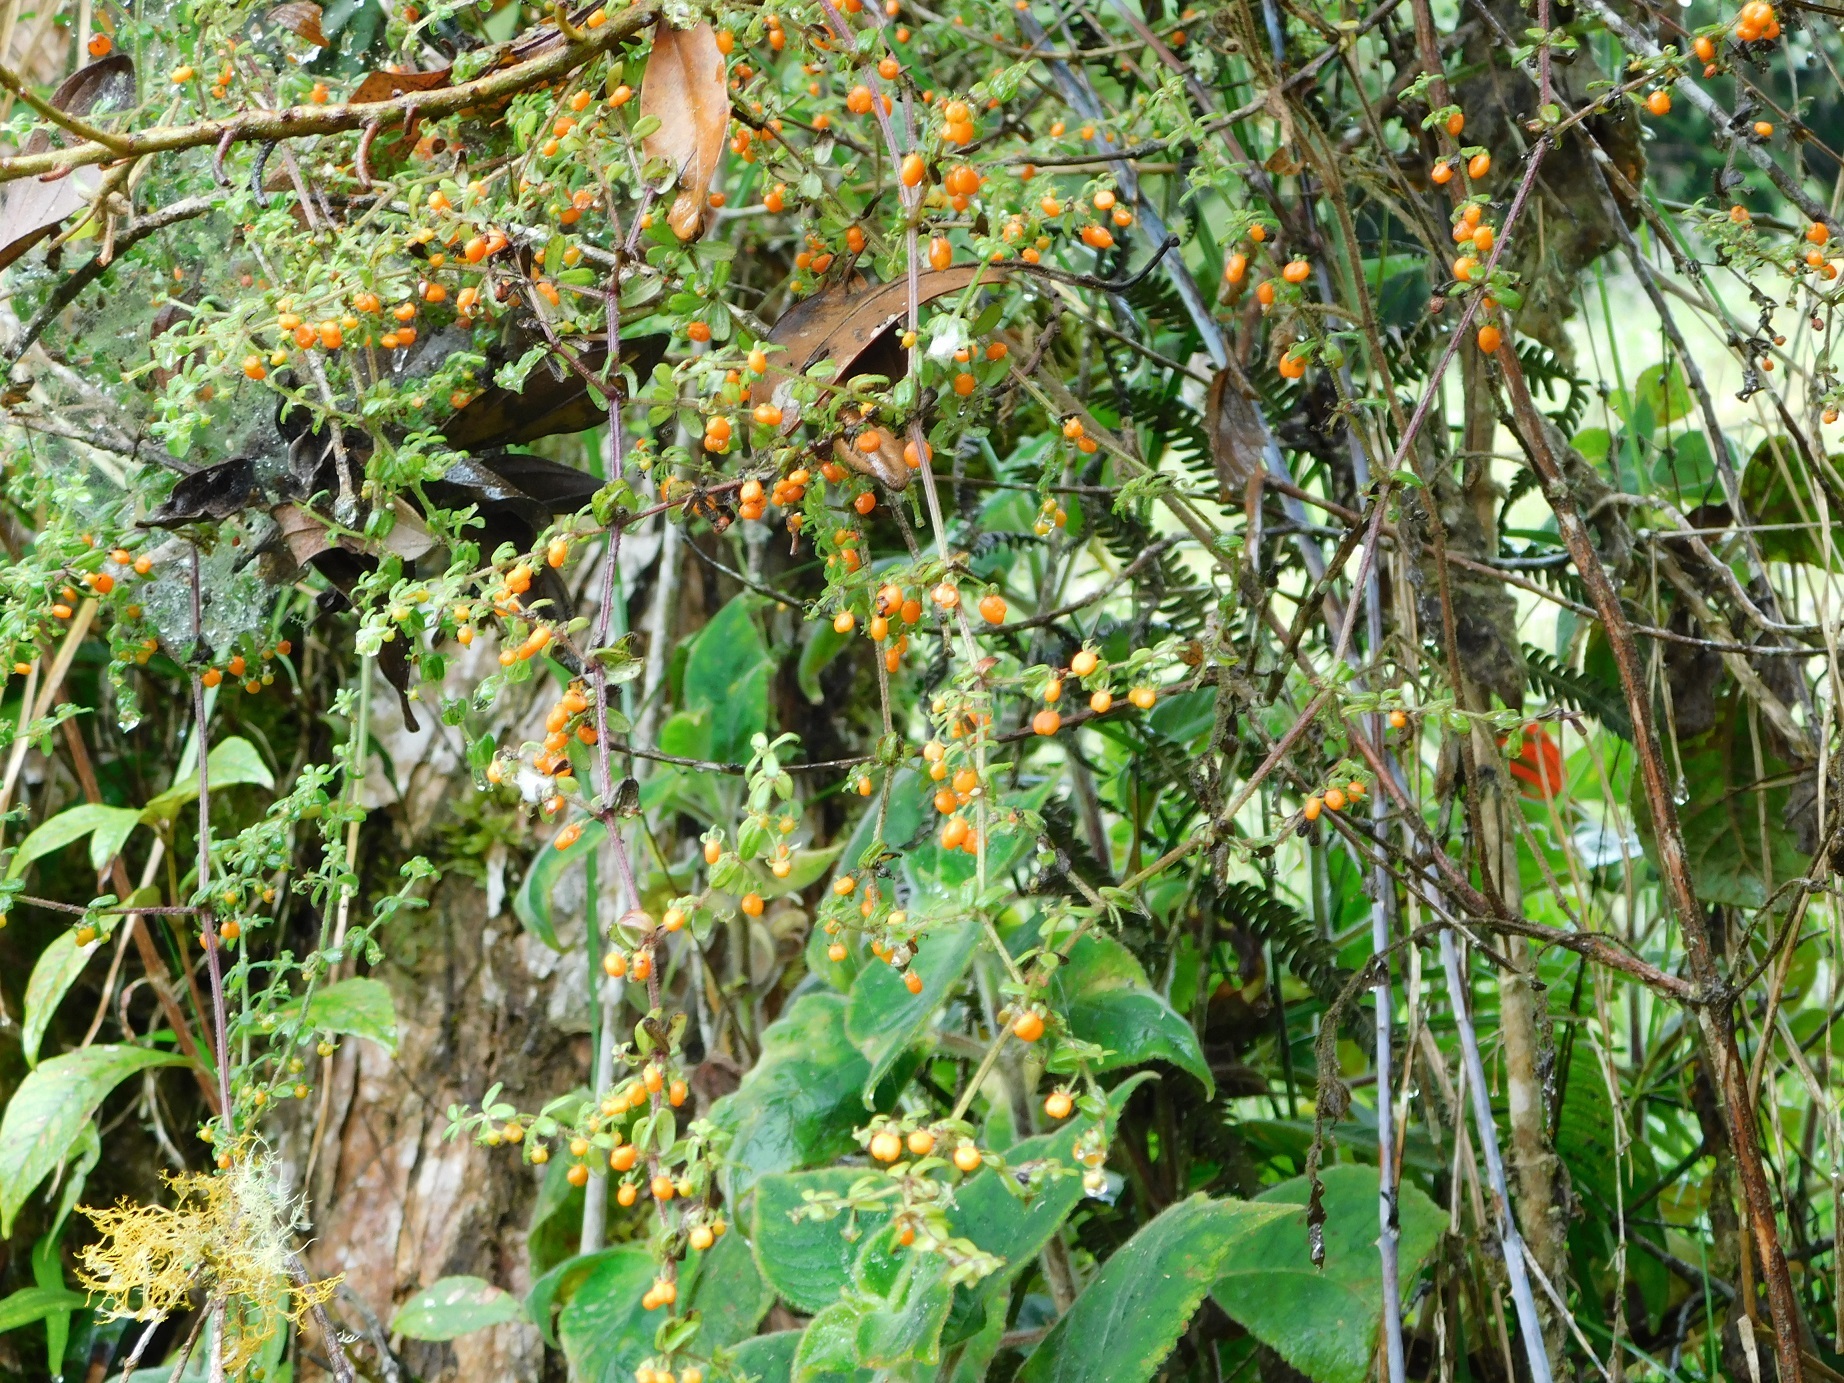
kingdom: Plantae
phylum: Tracheophyta
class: Magnoliopsida
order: Gentianales
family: Rubiaceae
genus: Galium
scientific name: Galium hypocarpium
